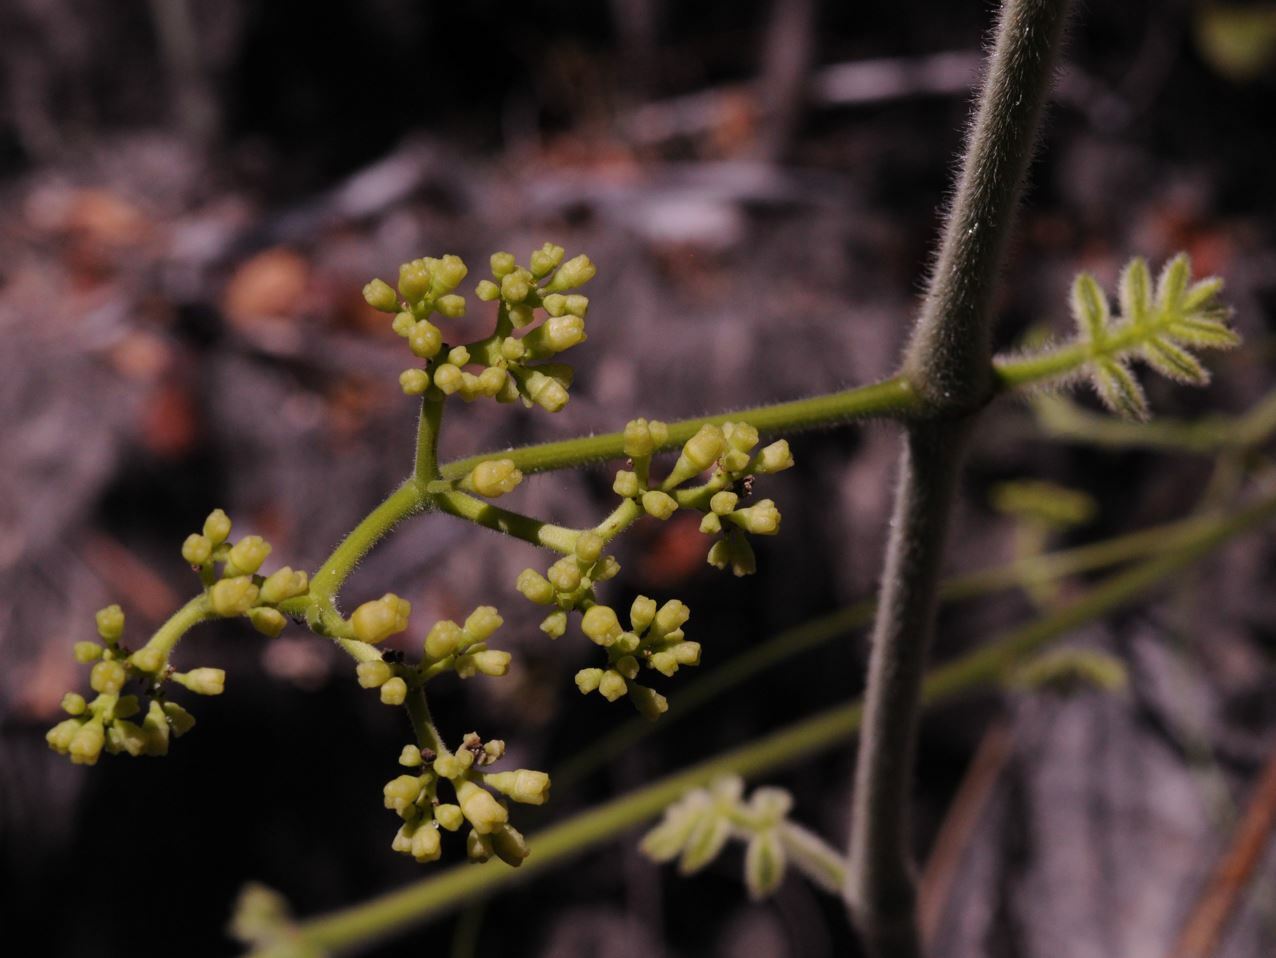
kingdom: Plantae
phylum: Tracheophyta
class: Magnoliopsida
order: Vitales
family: Vitaceae
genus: Cyphostemma
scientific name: Cyphostemma
